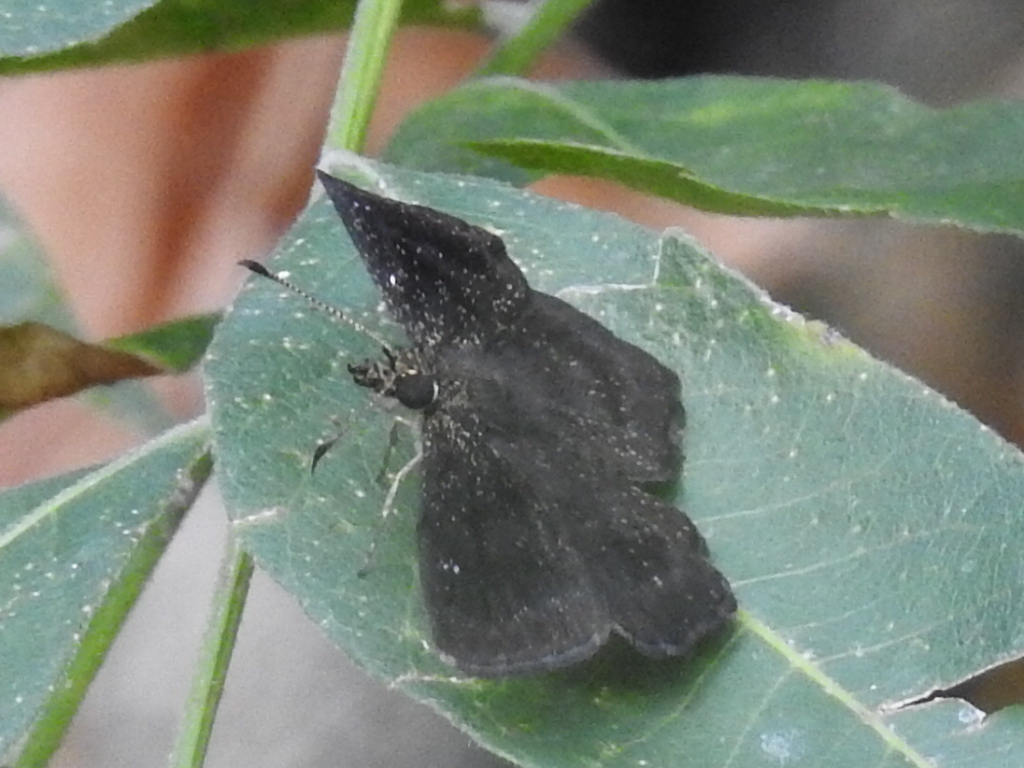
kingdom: Animalia
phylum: Arthropoda
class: Insecta
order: Lepidoptera
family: Hesperiidae
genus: Staphylus
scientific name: Staphylus mazans
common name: Mazans scallopwing
